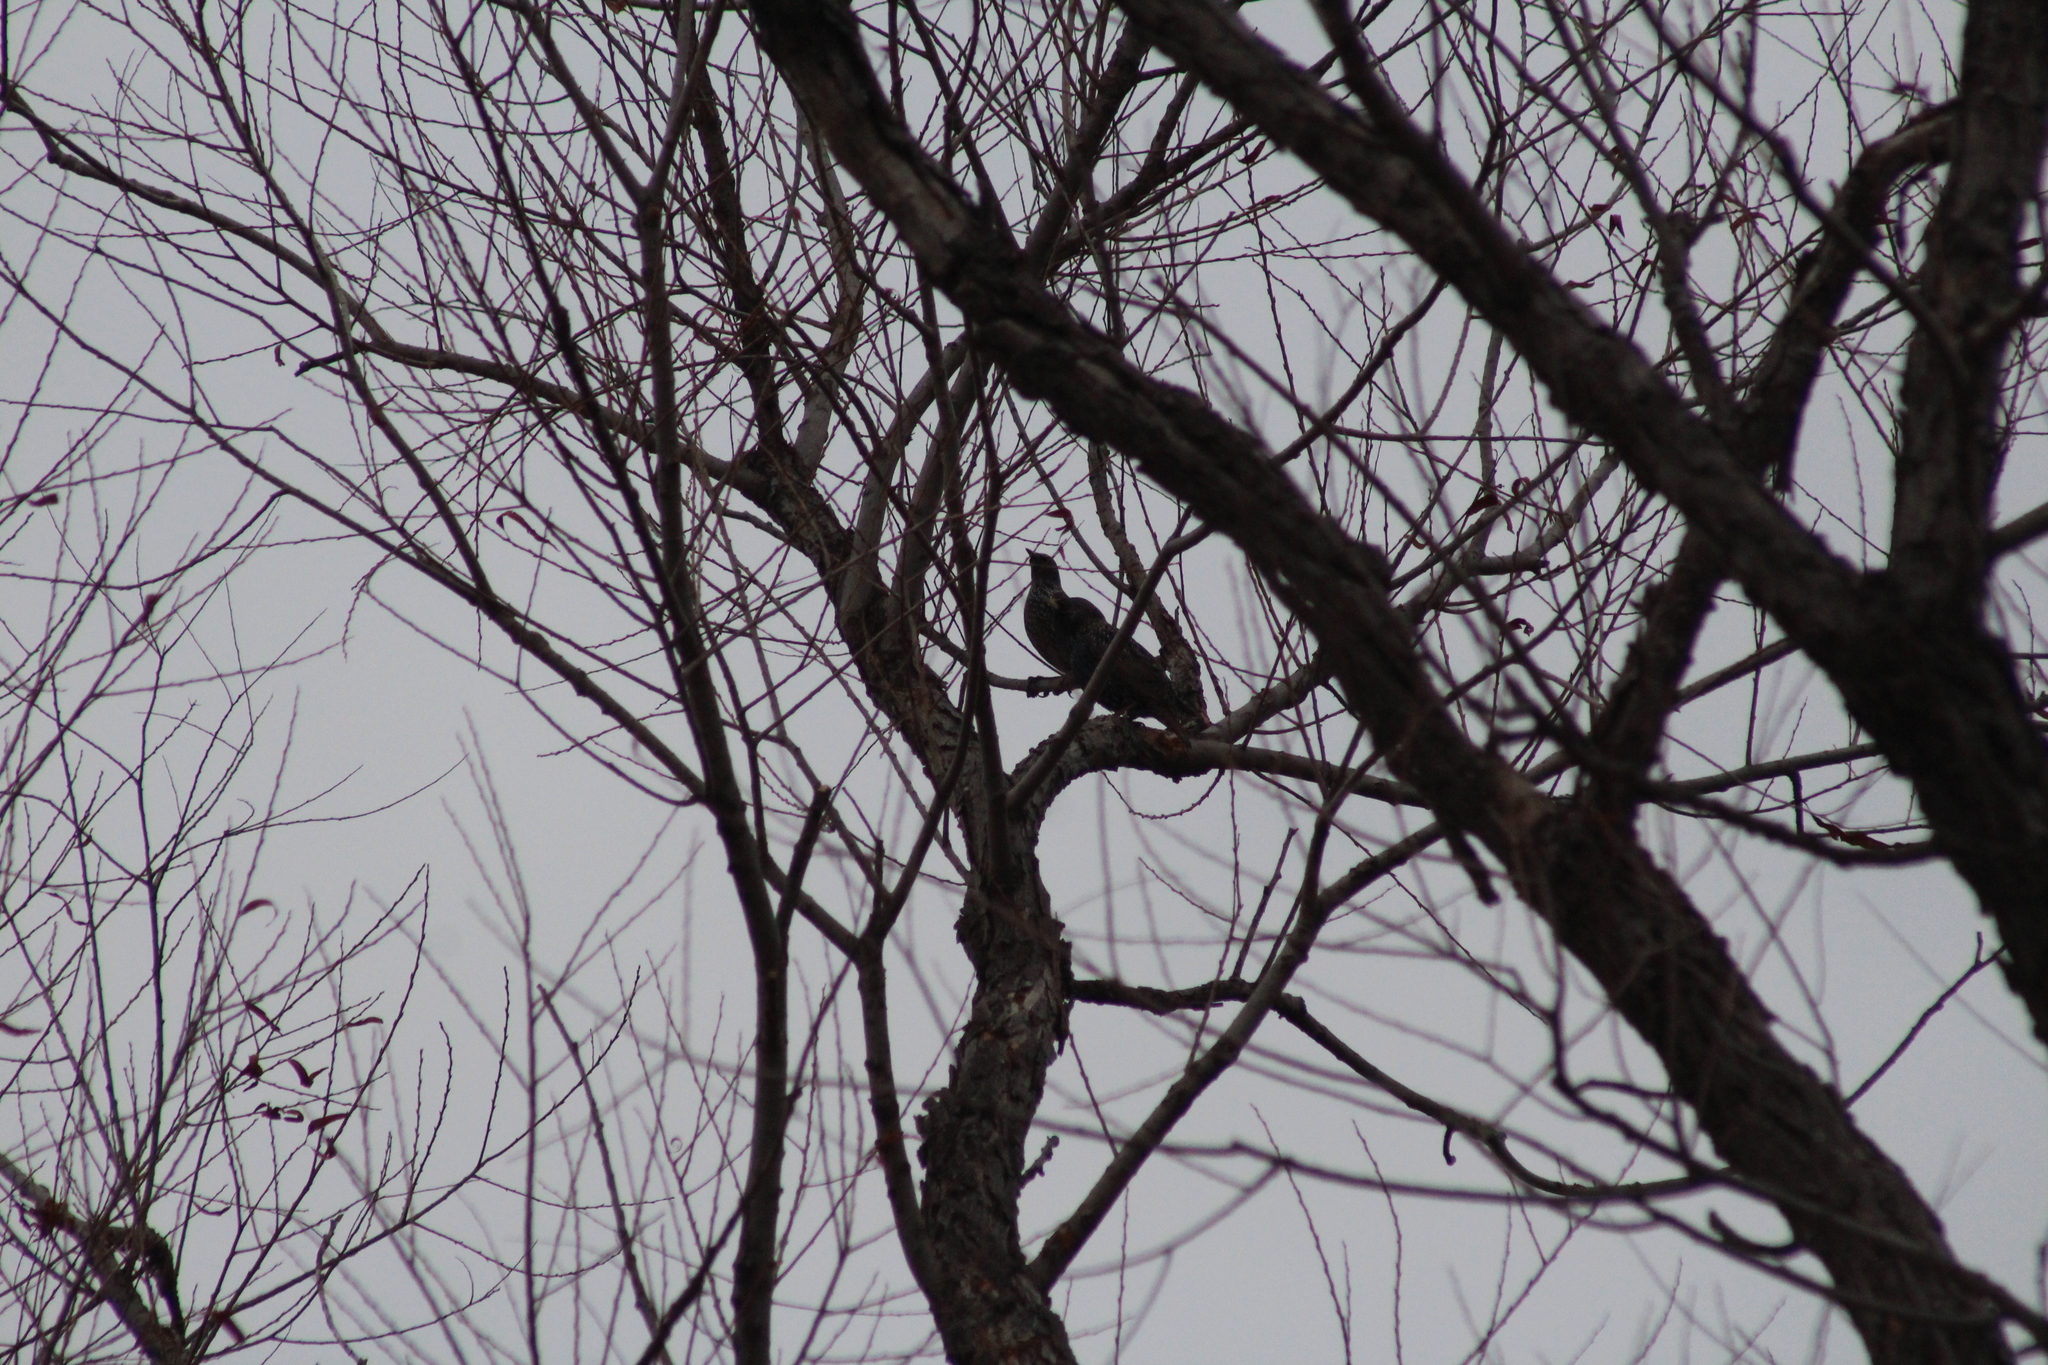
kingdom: Animalia
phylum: Chordata
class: Aves
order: Passeriformes
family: Sturnidae
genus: Sturnus
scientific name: Sturnus vulgaris
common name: Common starling
